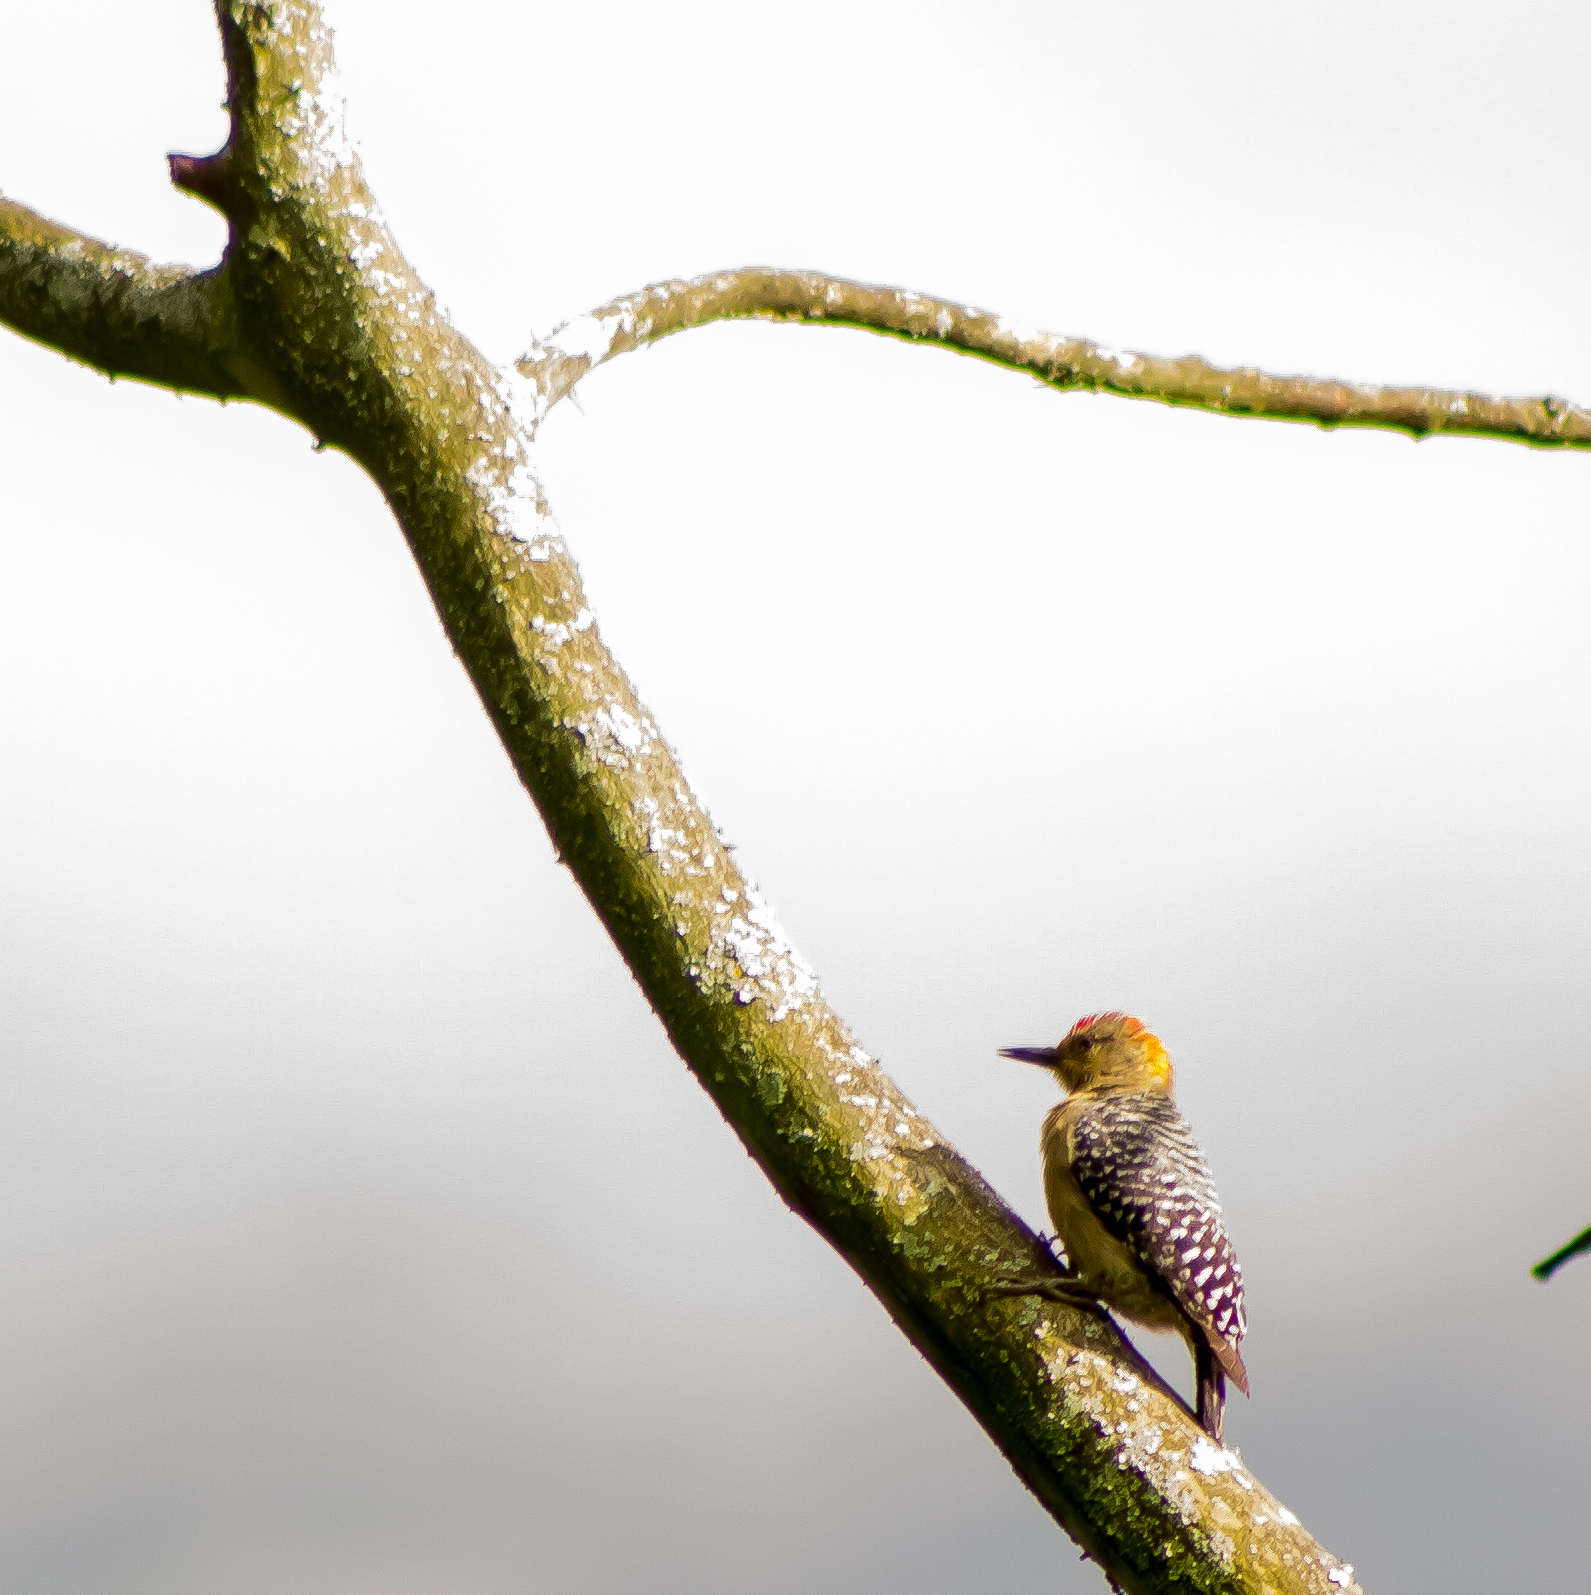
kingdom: Animalia
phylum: Chordata
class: Aves
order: Piciformes
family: Picidae
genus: Melanerpes
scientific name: Melanerpes rubricapillus
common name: Red-crowned woodpecker
